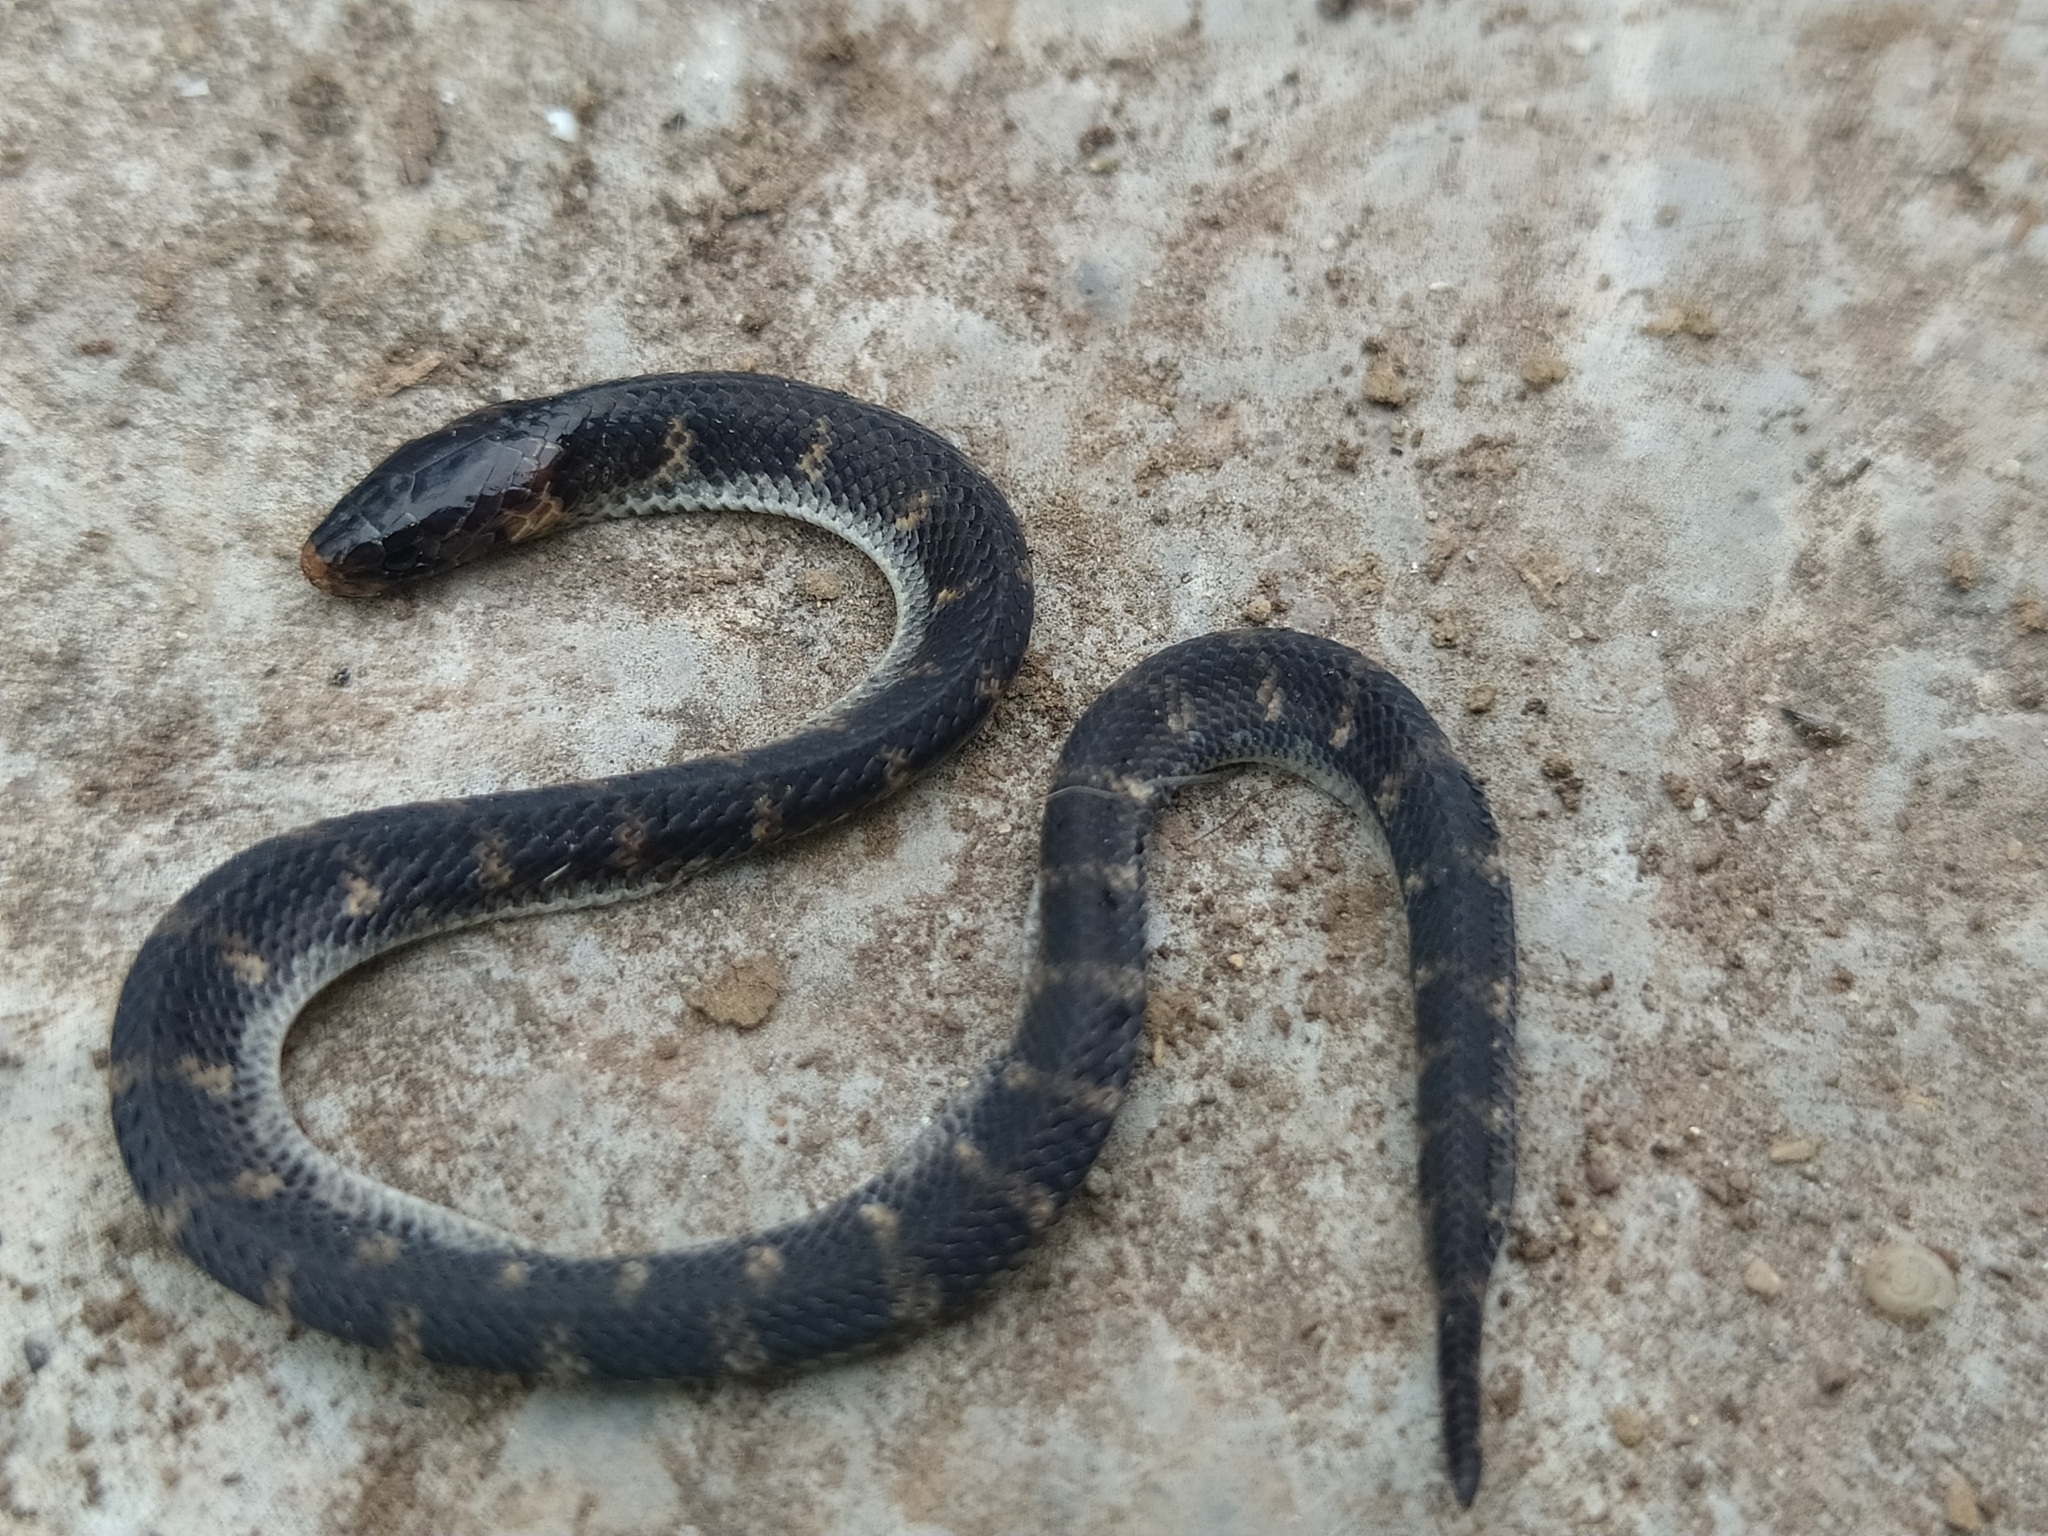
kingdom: Animalia
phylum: Chordata
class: Squamata
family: Colubridae
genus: Atractus
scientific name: Atractus wagleri
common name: Wagler's ground snake
